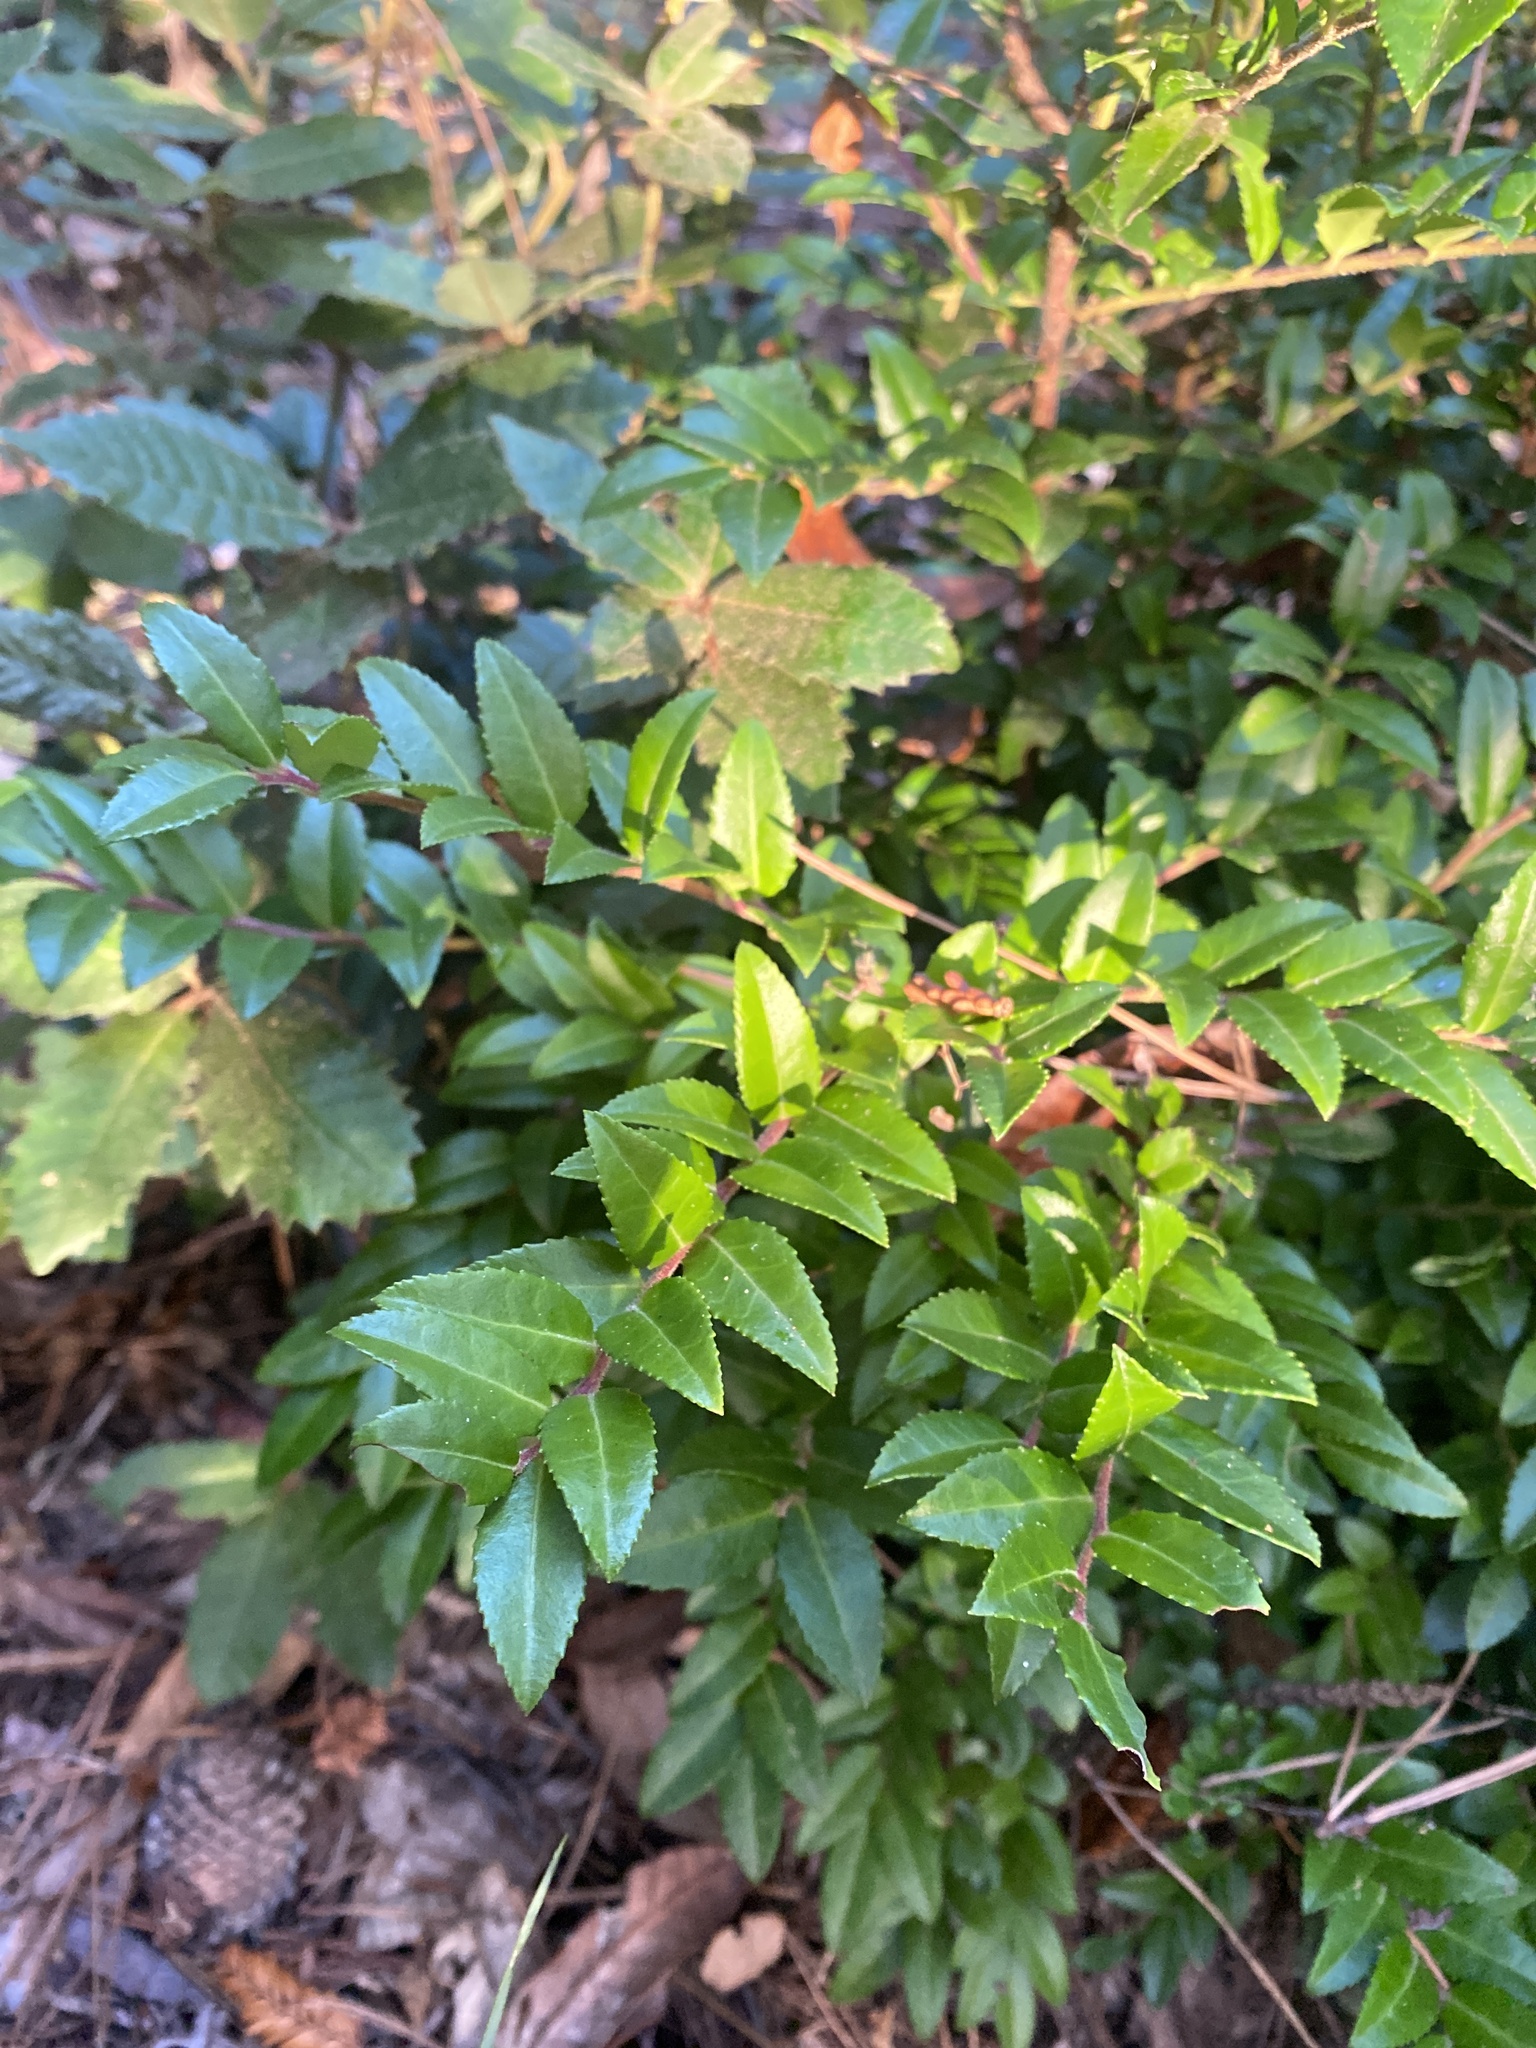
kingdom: Plantae
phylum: Tracheophyta
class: Magnoliopsida
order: Ericales
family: Ericaceae
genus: Vaccinium
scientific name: Vaccinium ovatum
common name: California-huckleberry
